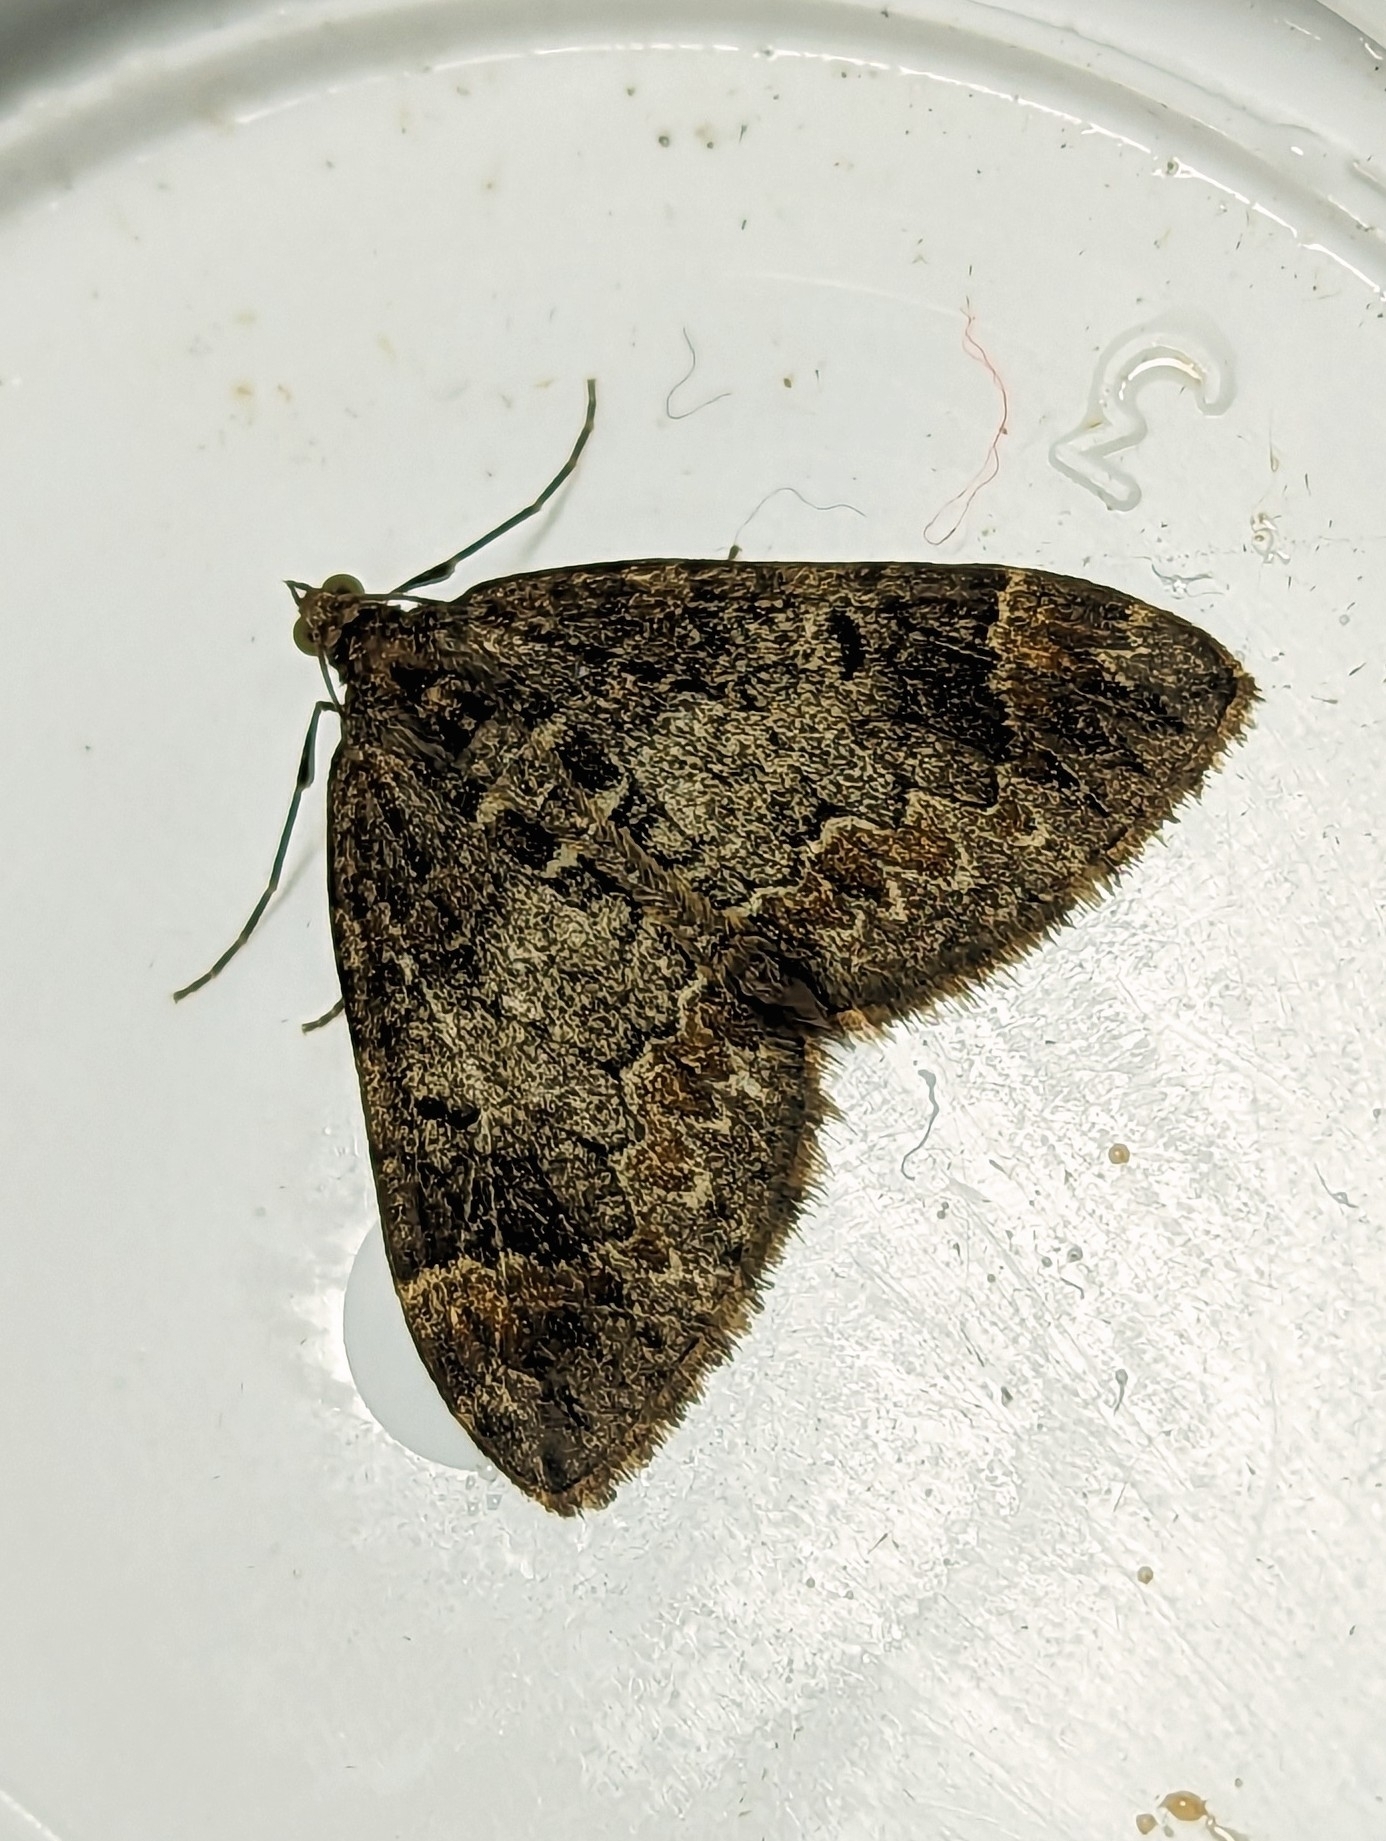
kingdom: Animalia
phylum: Arthropoda
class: Insecta
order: Lepidoptera
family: Geometridae
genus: Dysstroma
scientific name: Dysstroma truncata
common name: Common marbled carpet
